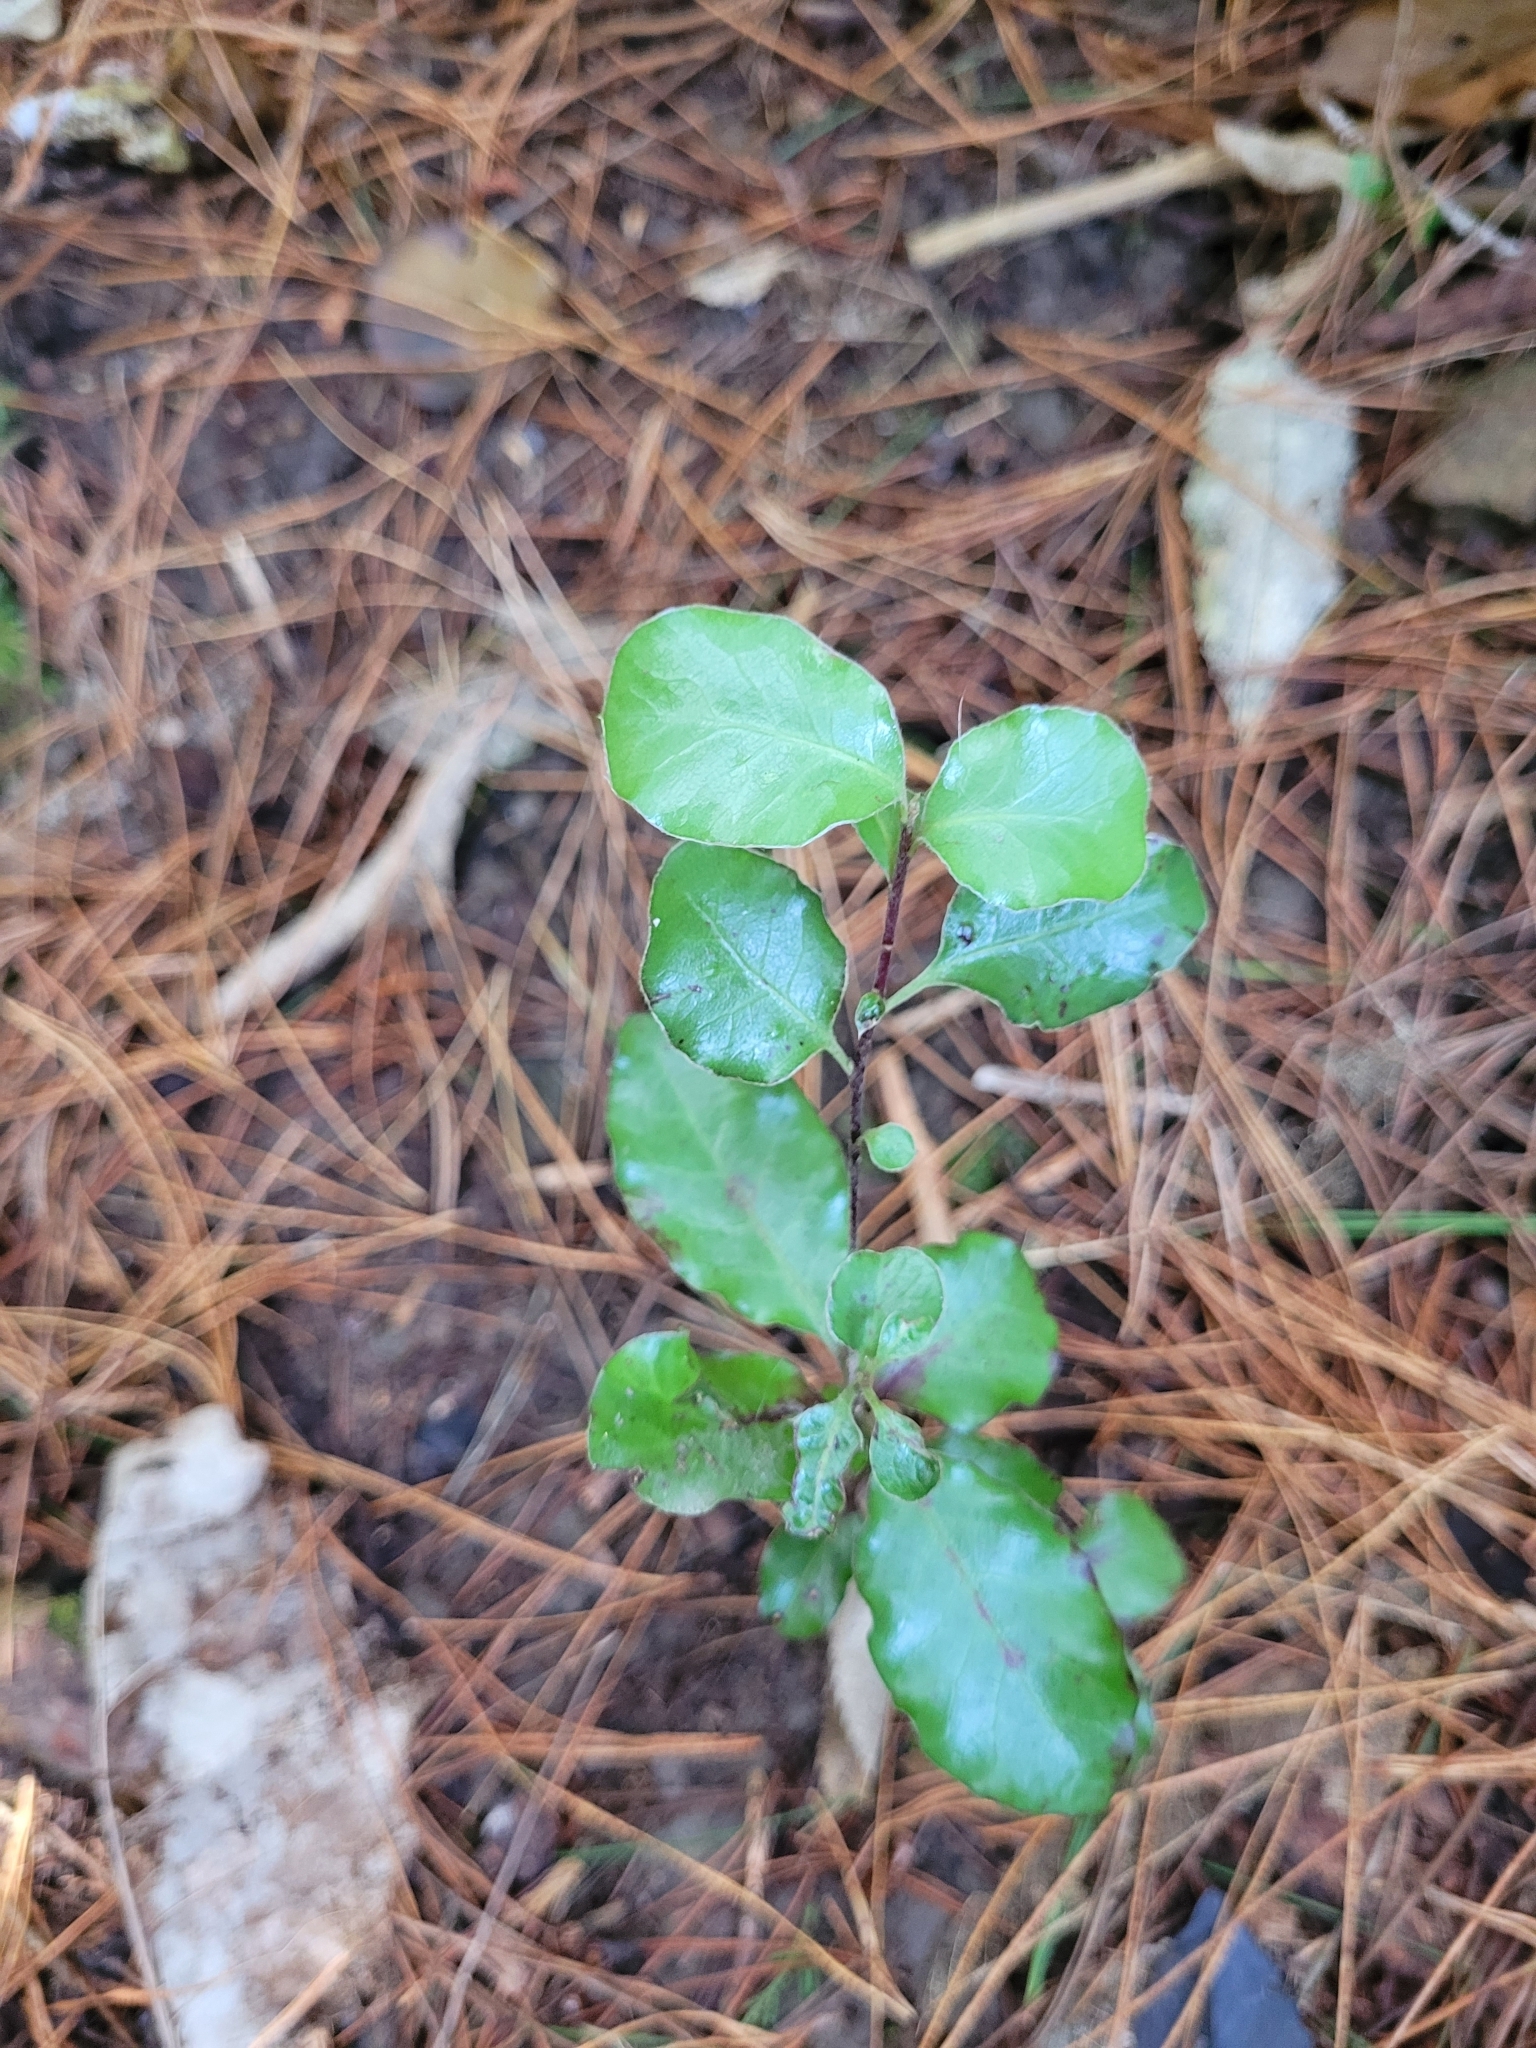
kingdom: Plantae
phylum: Tracheophyta
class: Magnoliopsida
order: Apiales
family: Pittosporaceae
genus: Pittosporum
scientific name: Pittosporum tenuifolium
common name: Kohuhu
